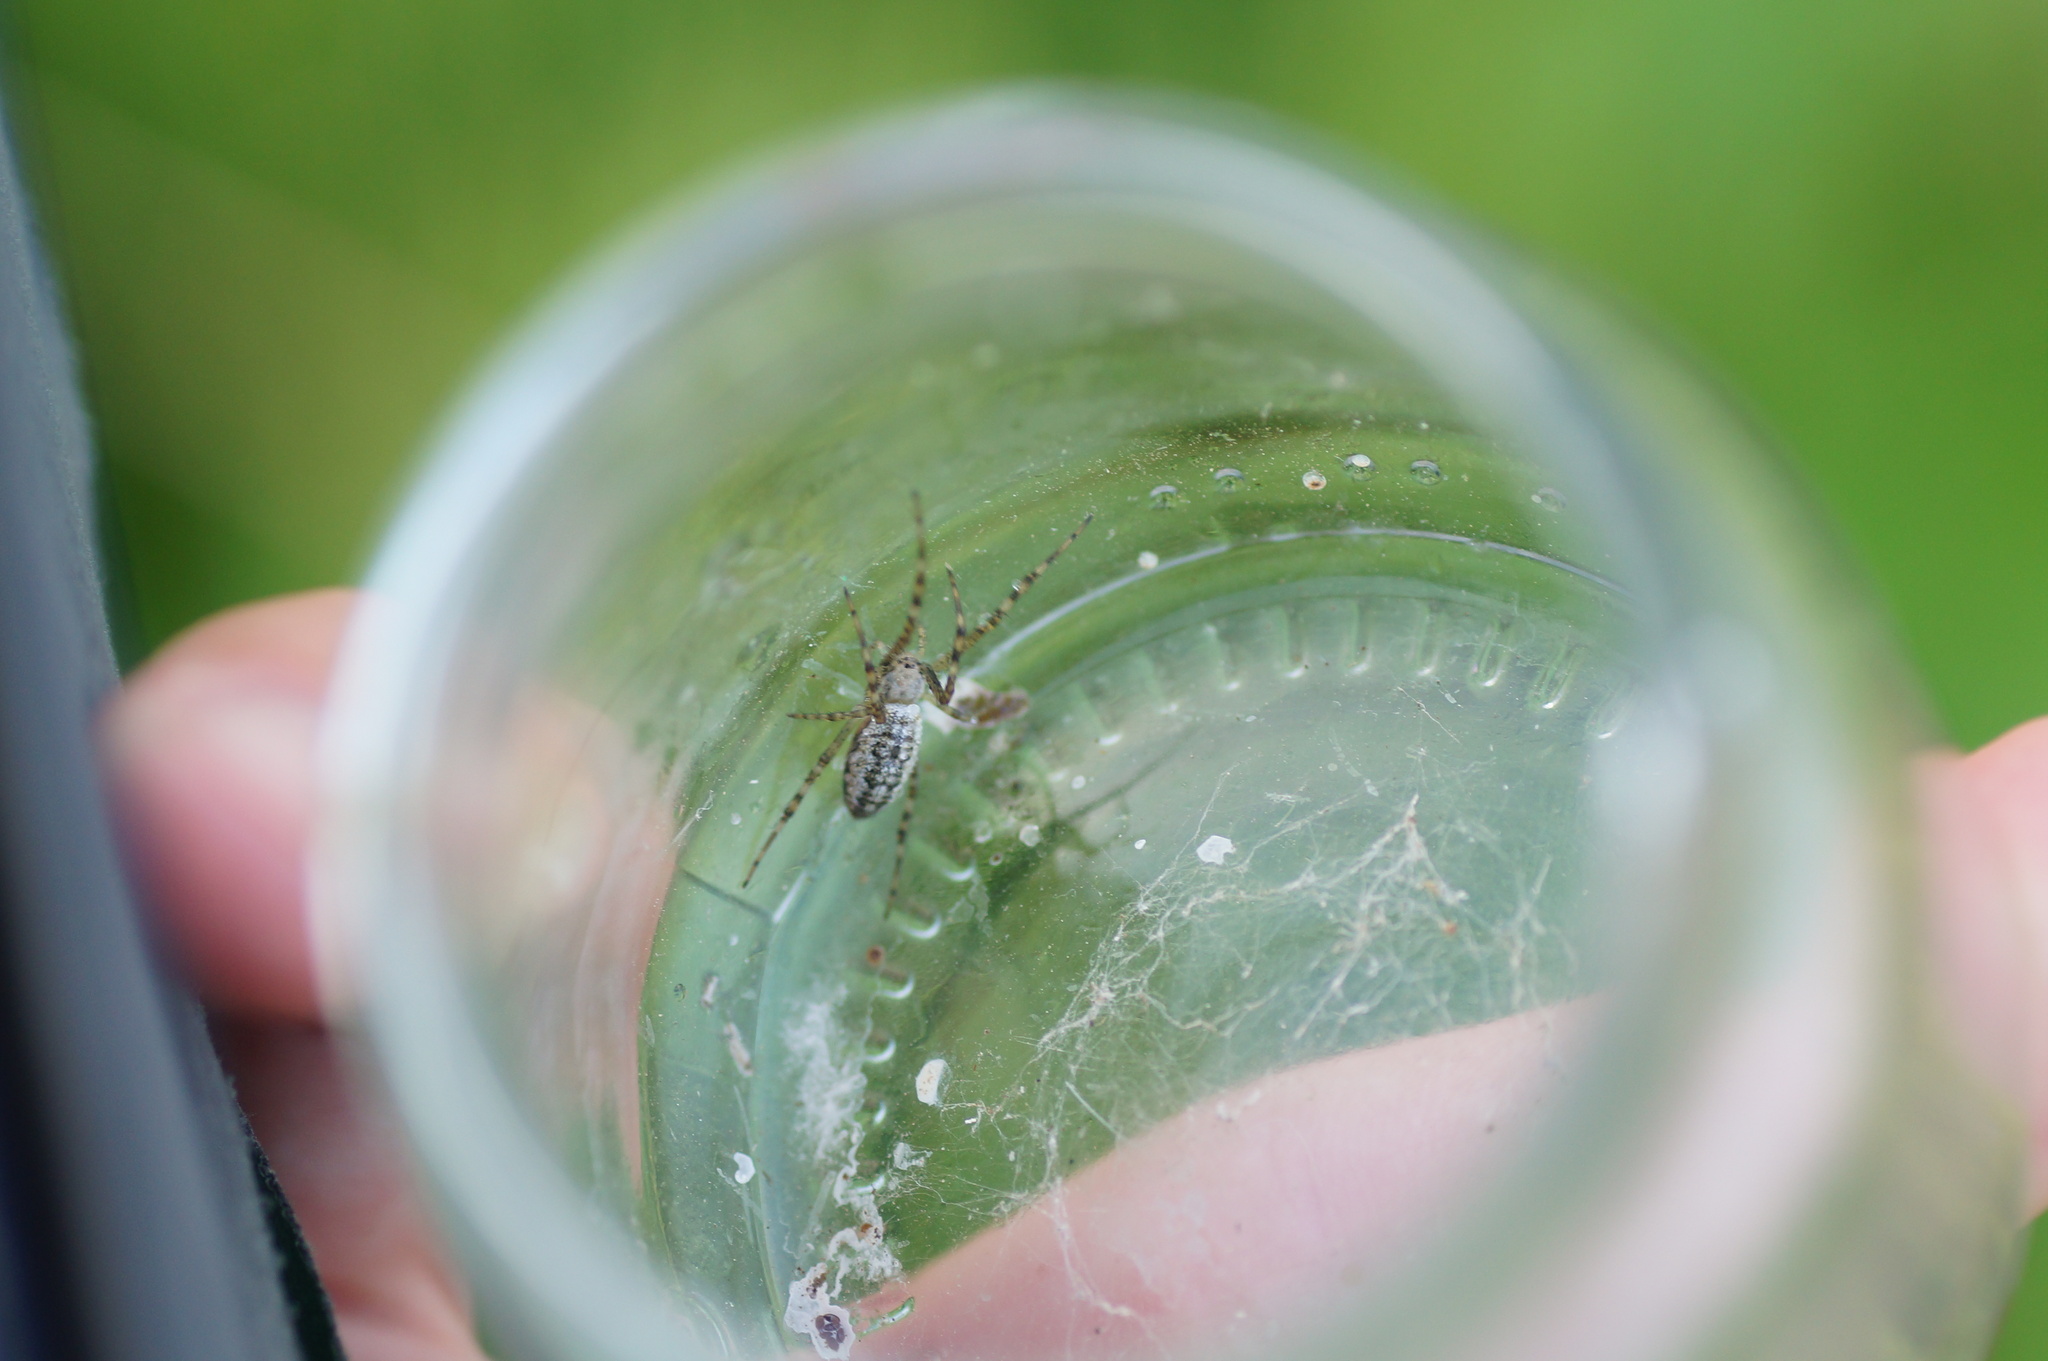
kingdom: Animalia
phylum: Arthropoda
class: Arachnida
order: Araneae
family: Araneidae
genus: Argiope
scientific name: Argiope bruennichi
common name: Wasp spider
